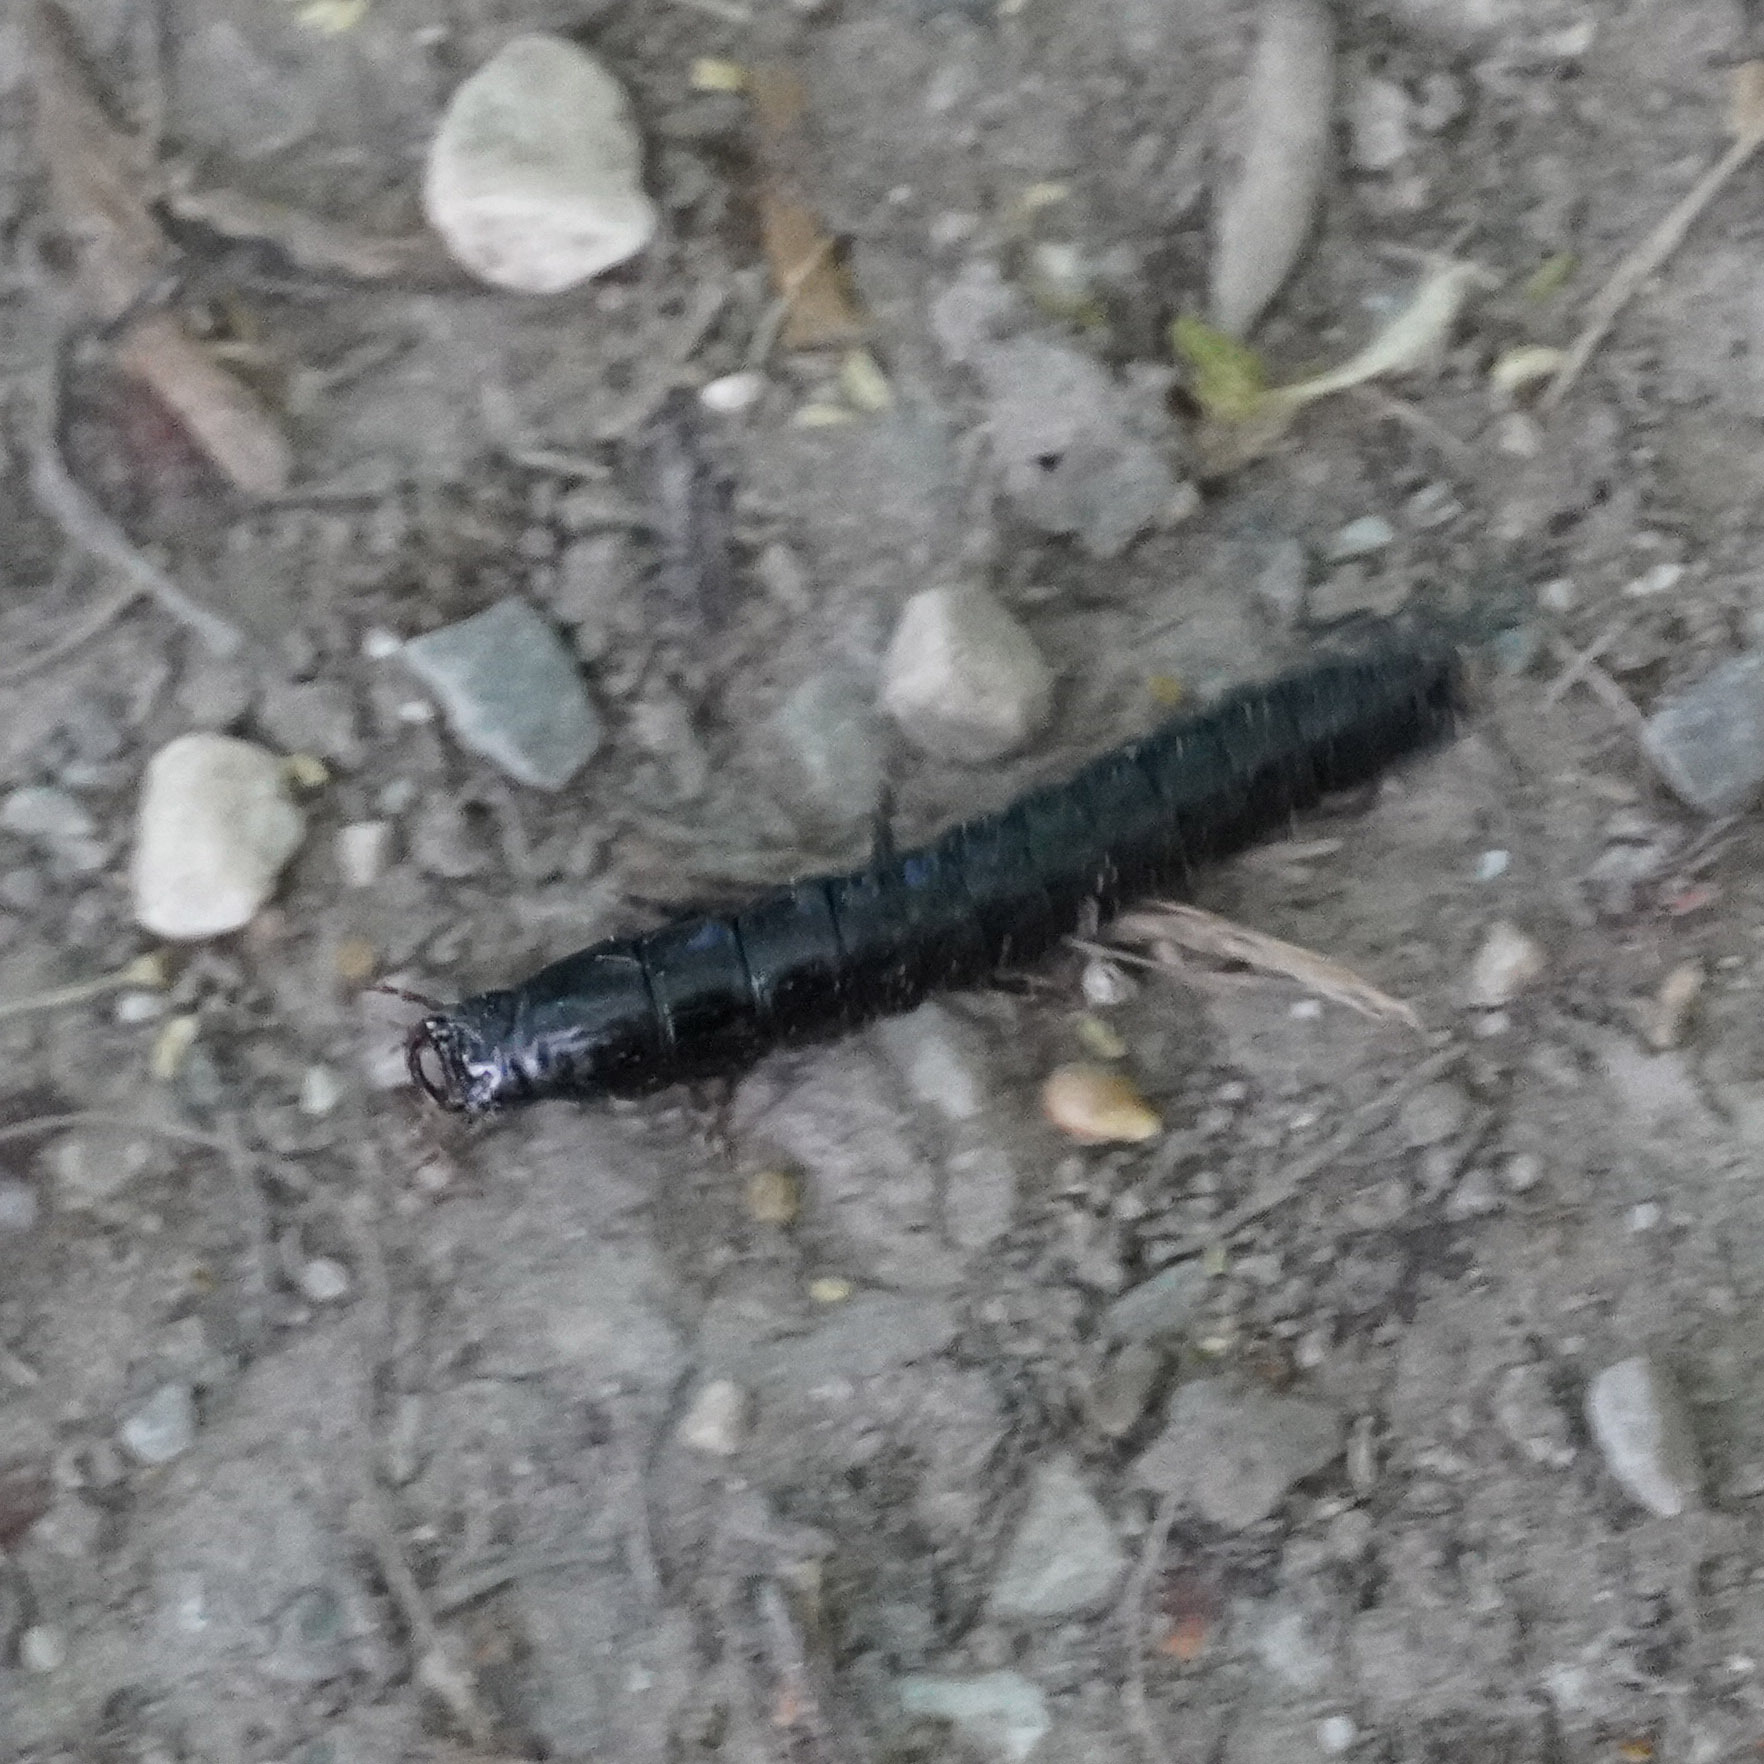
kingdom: Animalia
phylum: Arthropoda
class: Insecta
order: Coleoptera
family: Carabidae
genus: Carabus
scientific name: Carabus
